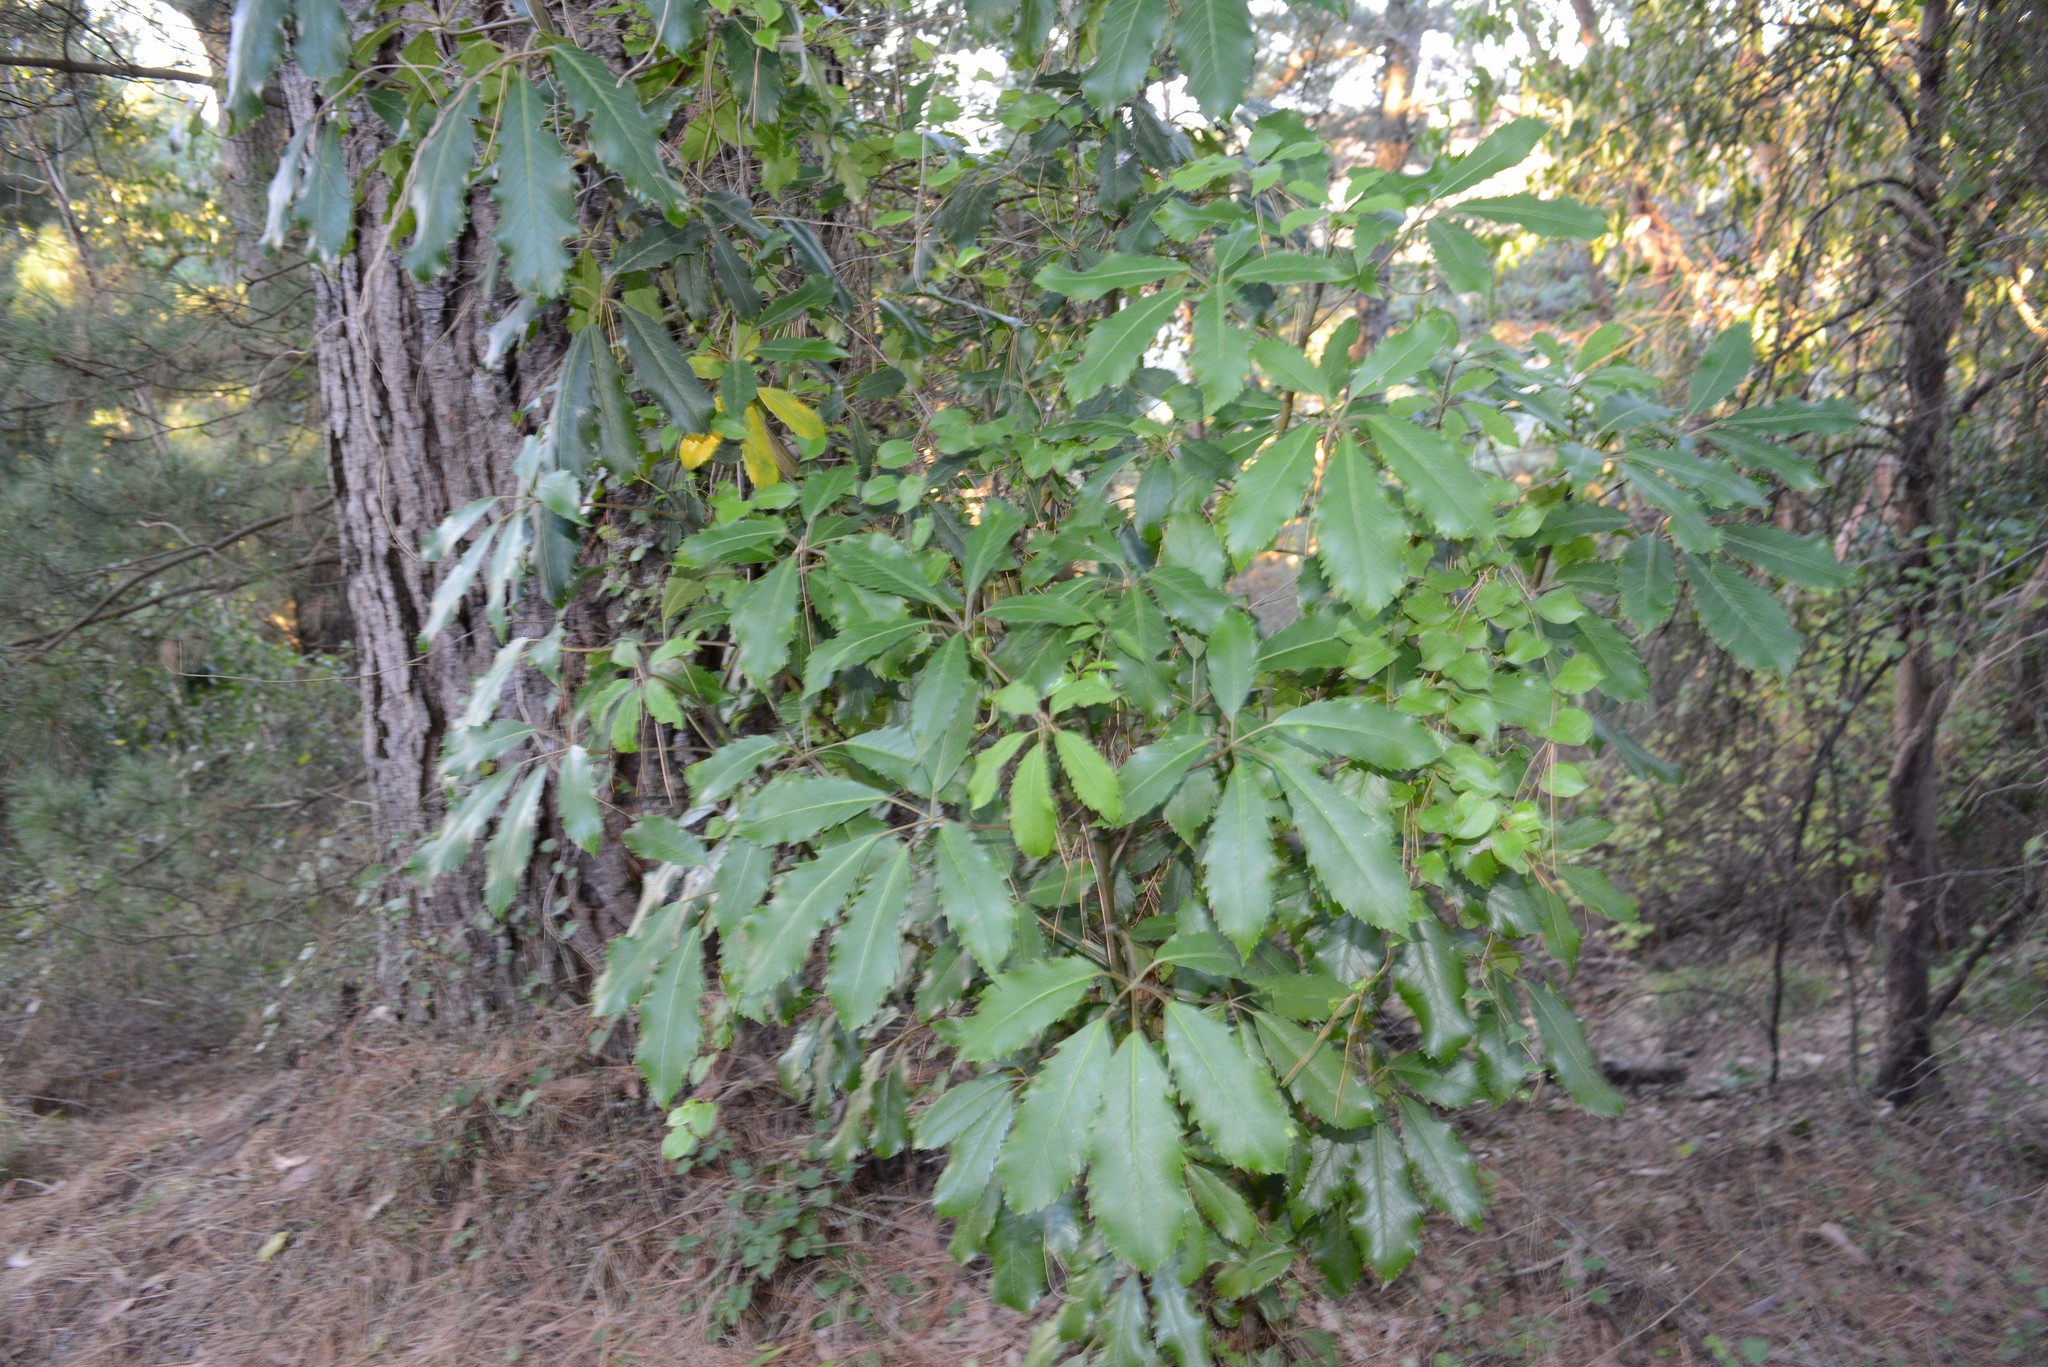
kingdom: Plantae
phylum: Tracheophyta
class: Magnoliopsida
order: Apiales
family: Araliaceae
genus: Neopanax
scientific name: Neopanax arboreus
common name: Five-fingers
